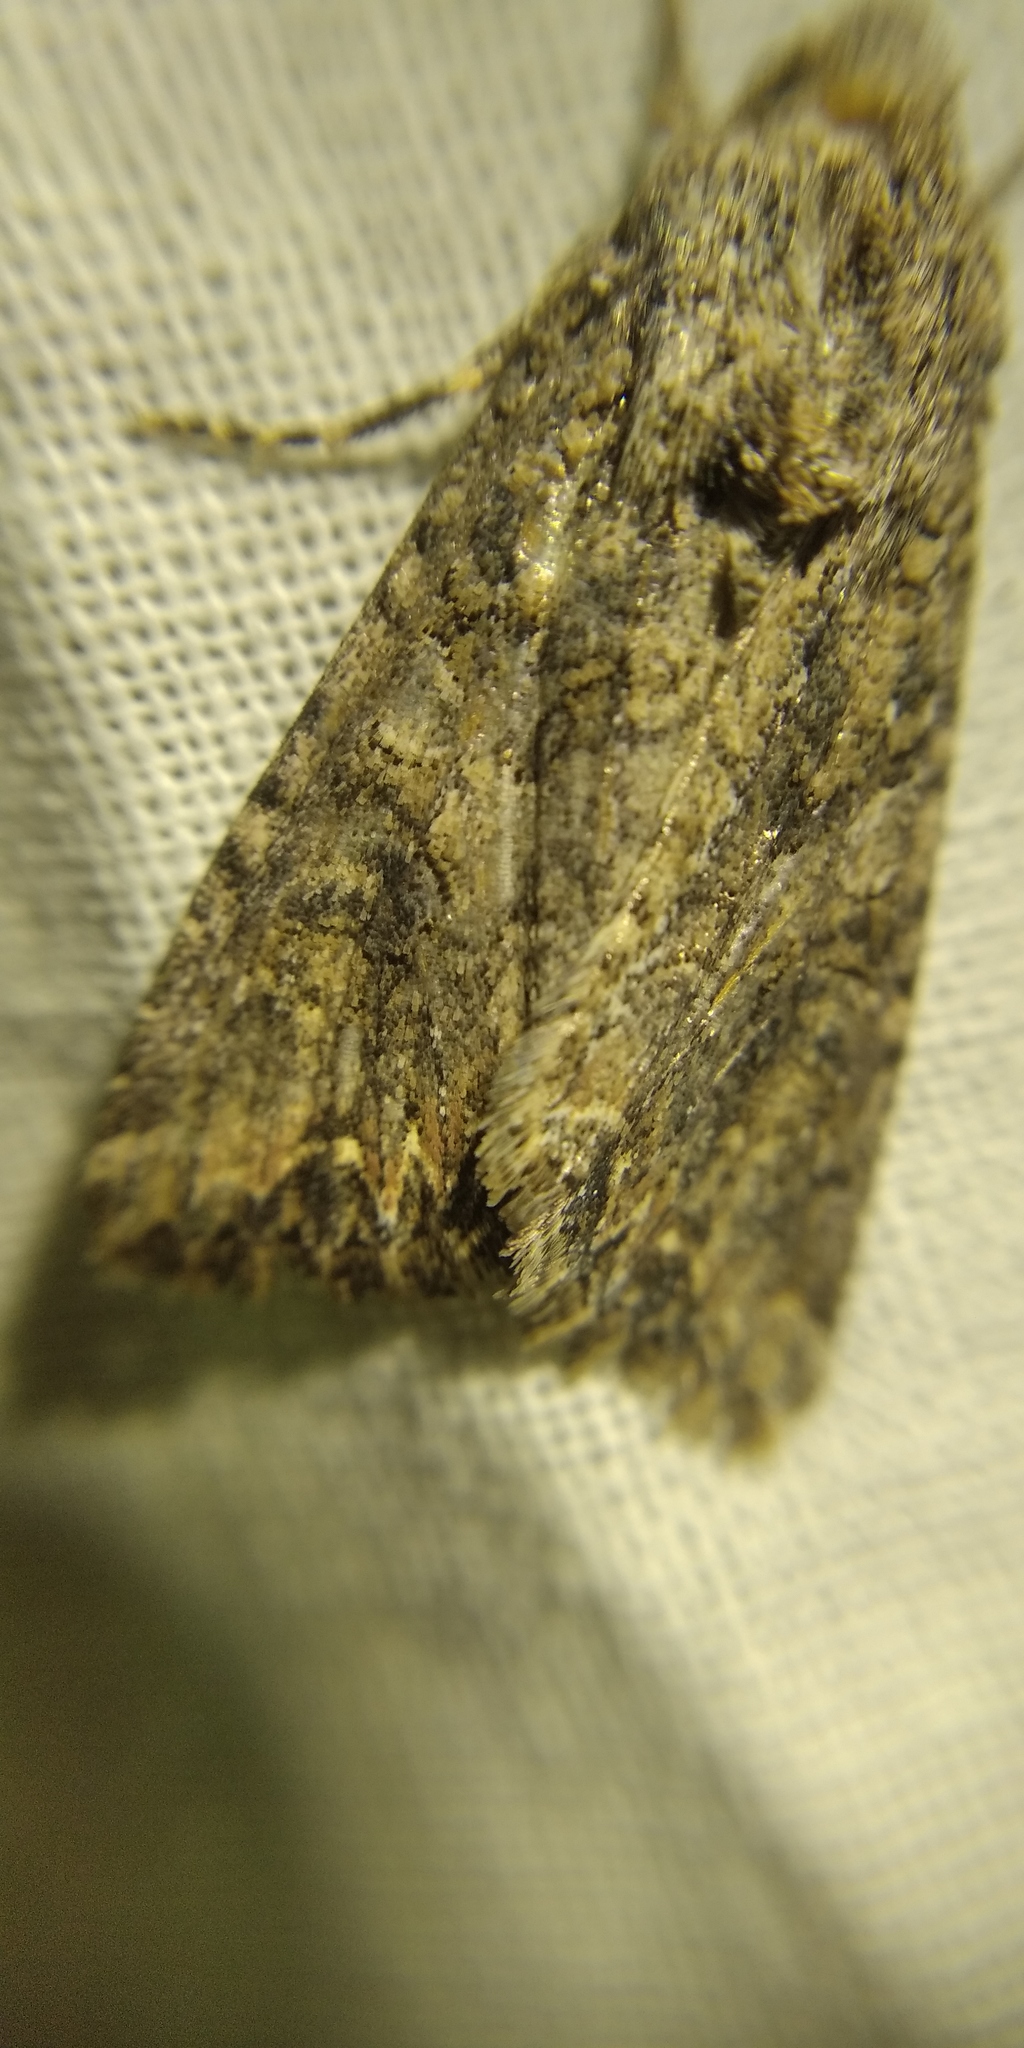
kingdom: Animalia
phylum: Arthropoda
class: Insecta
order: Lepidoptera
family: Noctuidae
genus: Anarta
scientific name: Anarta trifolii
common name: Clover cutworm moth
